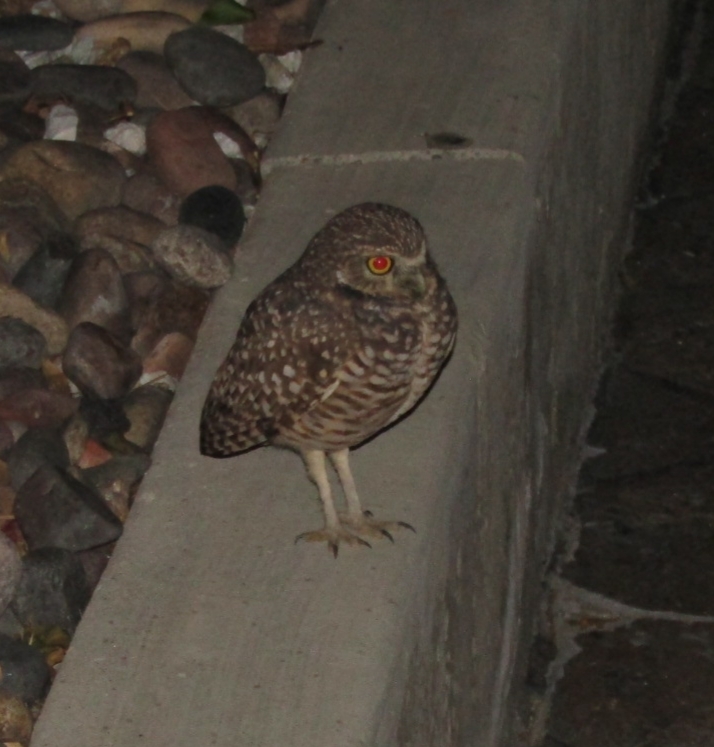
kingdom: Animalia
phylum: Chordata
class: Aves
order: Strigiformes
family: Strigidae
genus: Athene
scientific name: Athene cunicularia
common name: Burrowing owl
